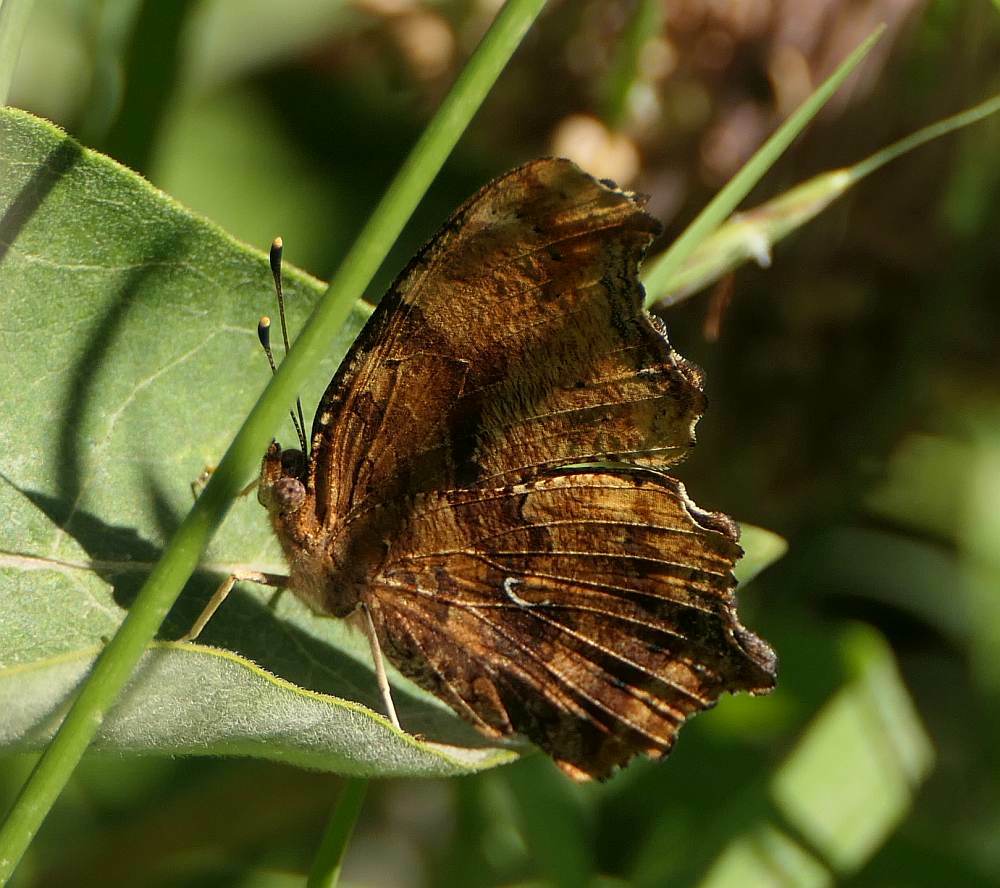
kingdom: Animalia
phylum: Arthropoda
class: Insecta
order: Lepidoptera
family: Nymphalidae
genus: Polygonia
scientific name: Polygonia comma
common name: Eastern comma
